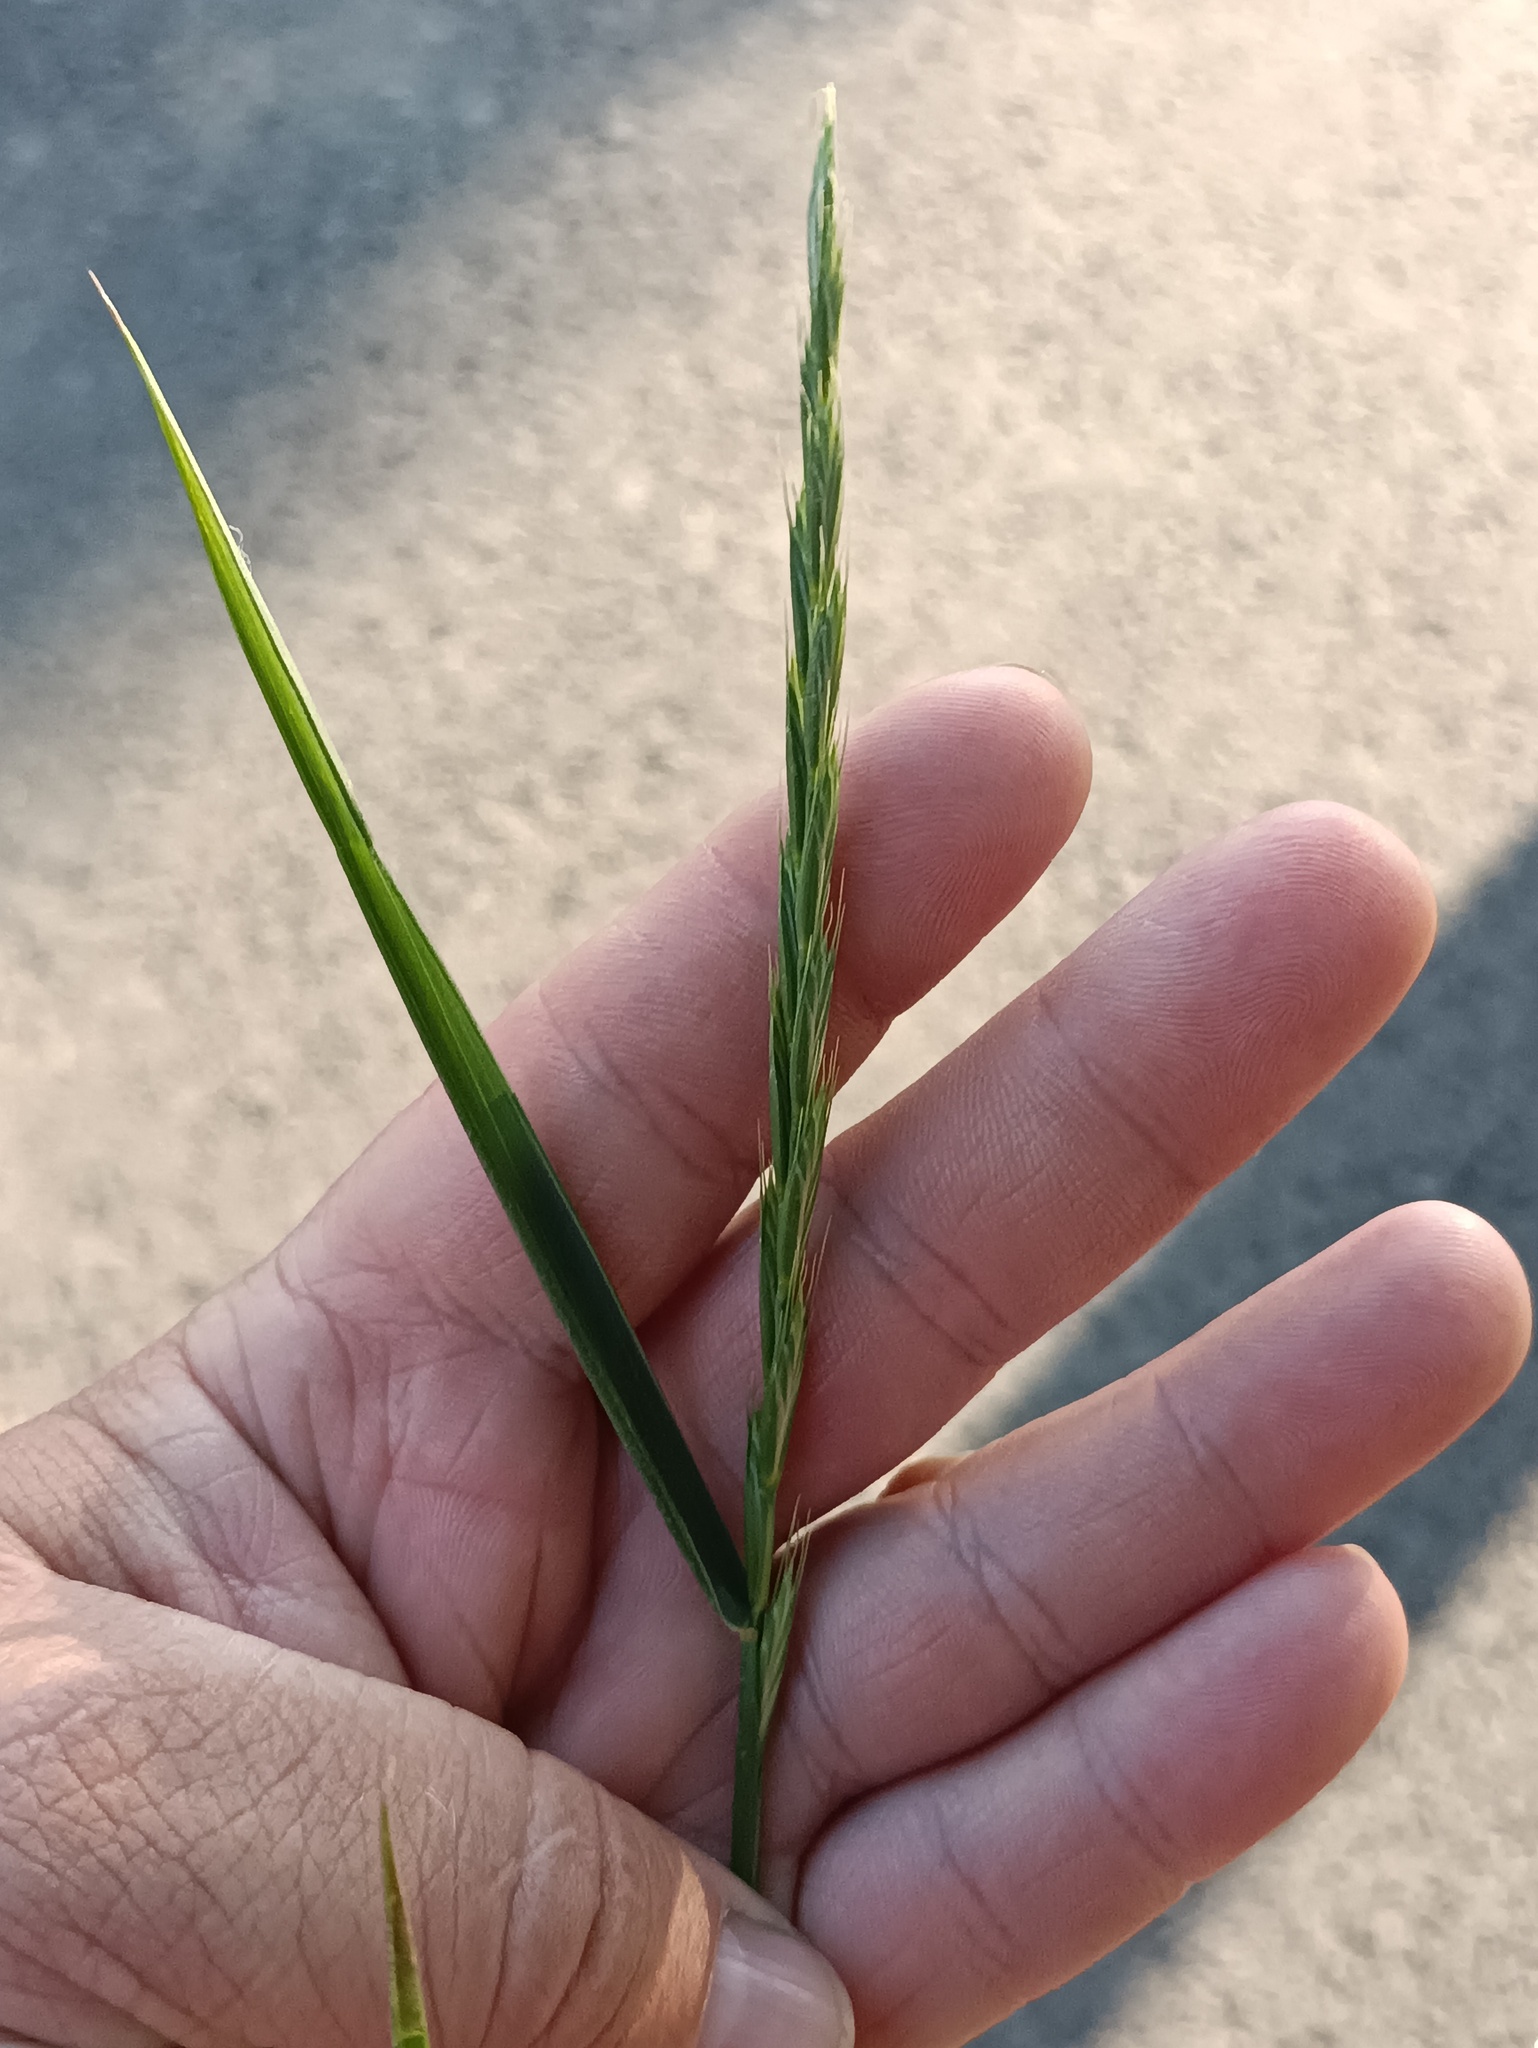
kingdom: Plantae
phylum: Tracheophyta
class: Liliopsida
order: Poales
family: Poaceae
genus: Elymus
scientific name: Elymus repens
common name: Quackgrass
